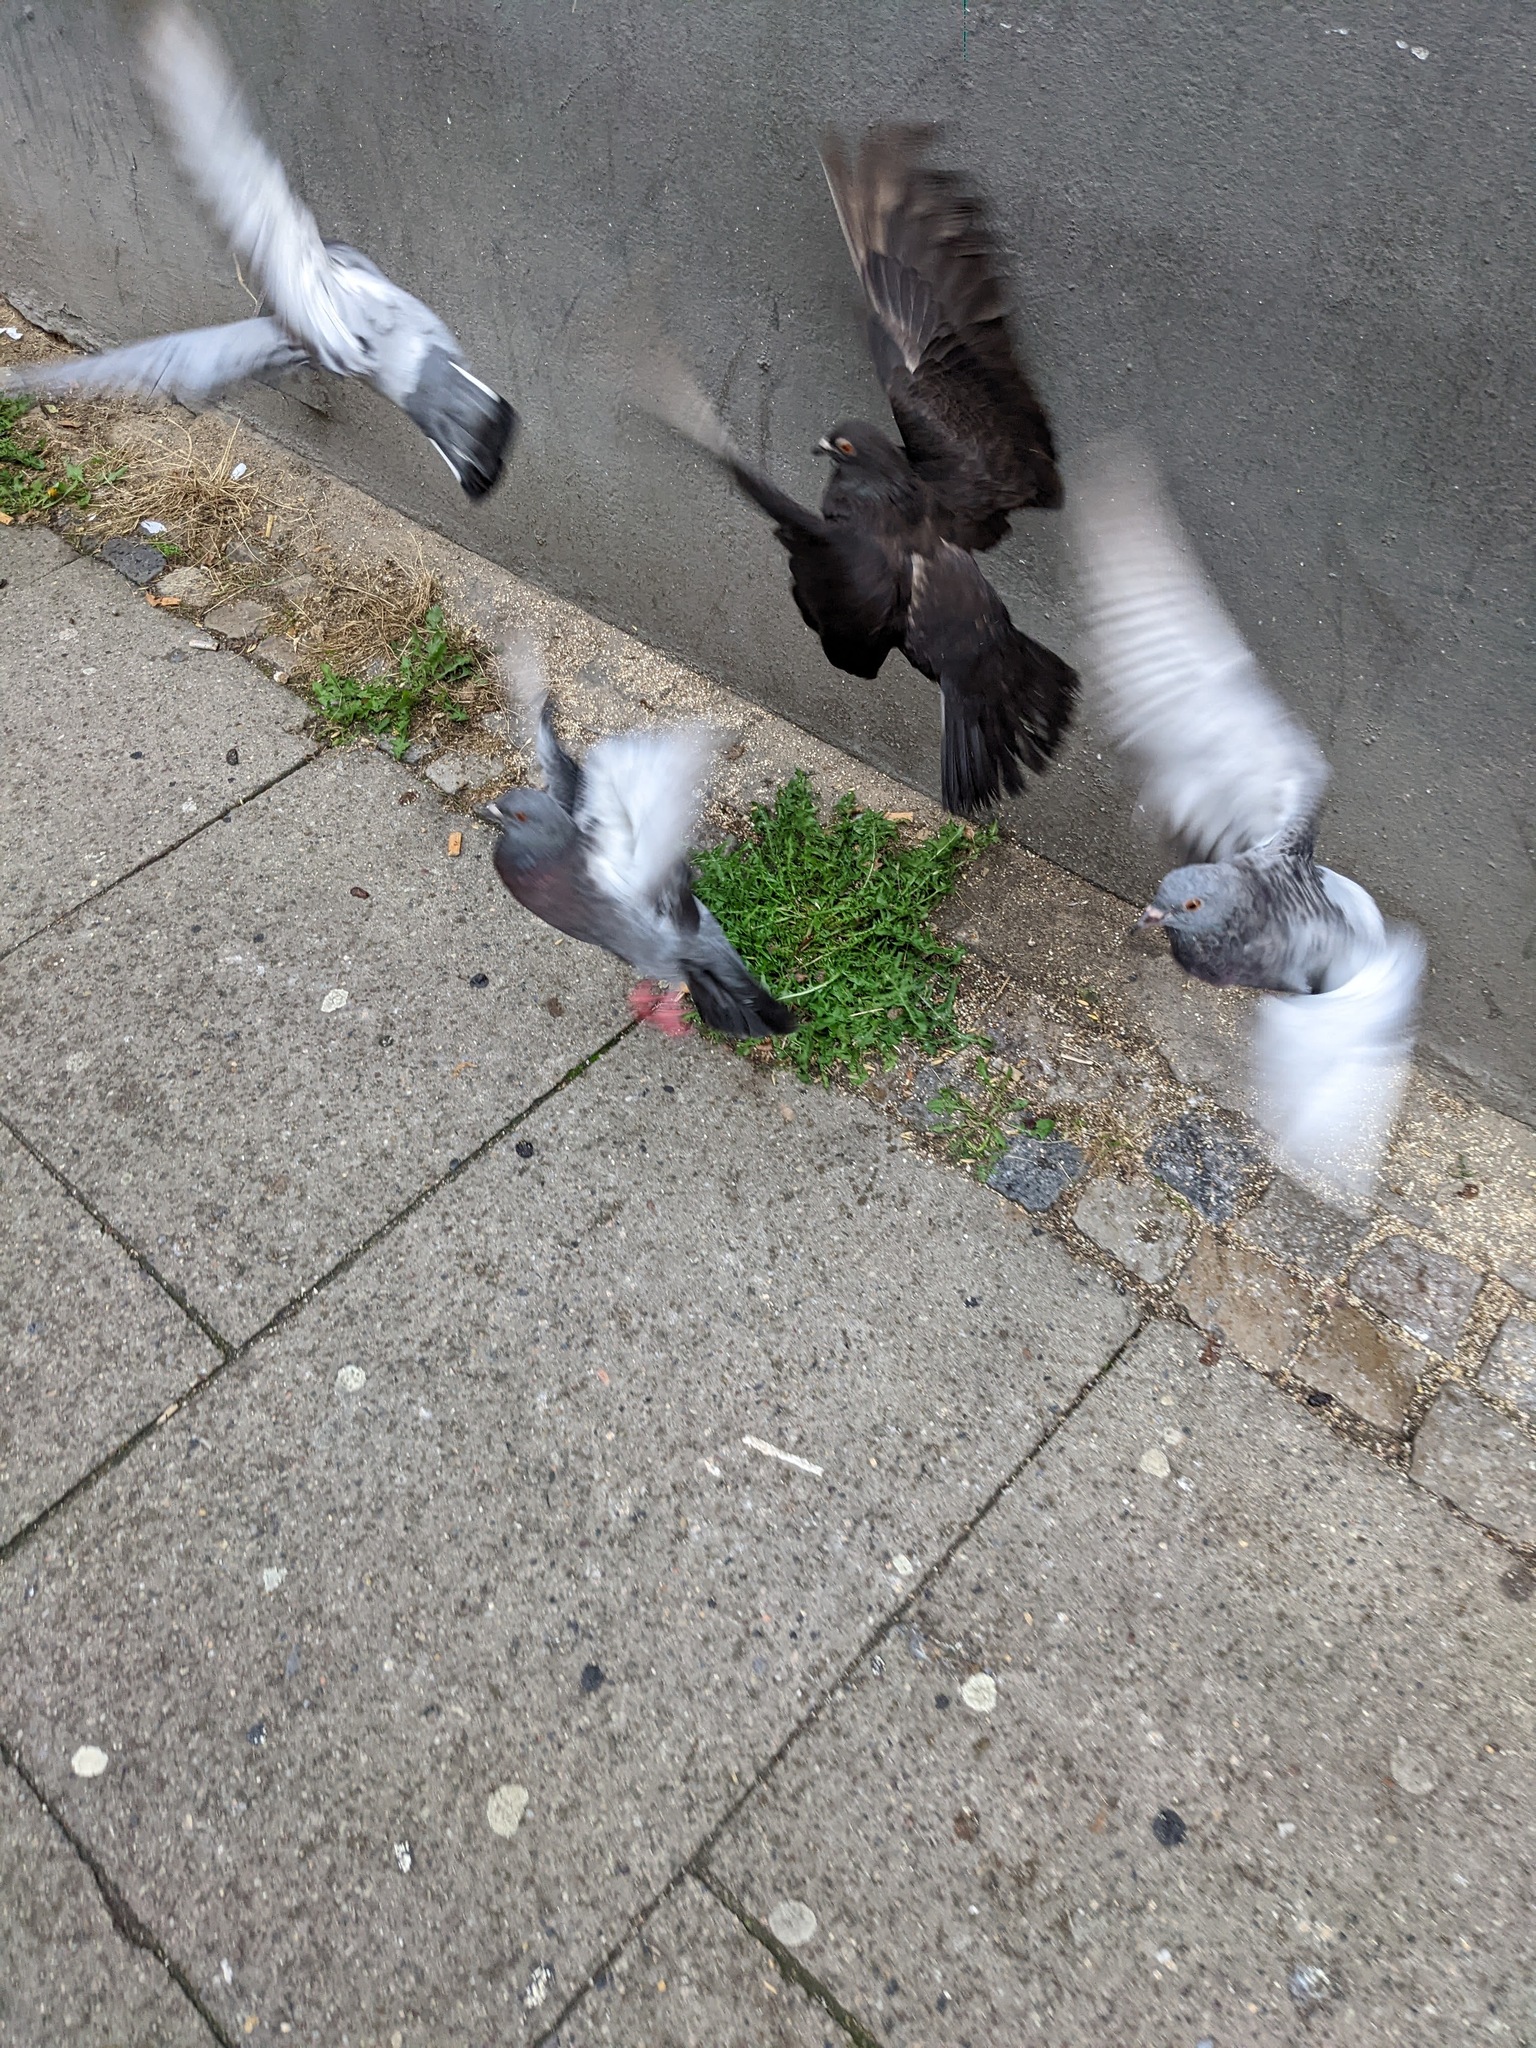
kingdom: Animalia
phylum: Chordata
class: Aves
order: Columbiformes
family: Columbidae
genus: Columba
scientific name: Columba livia
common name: Rock pigeon
